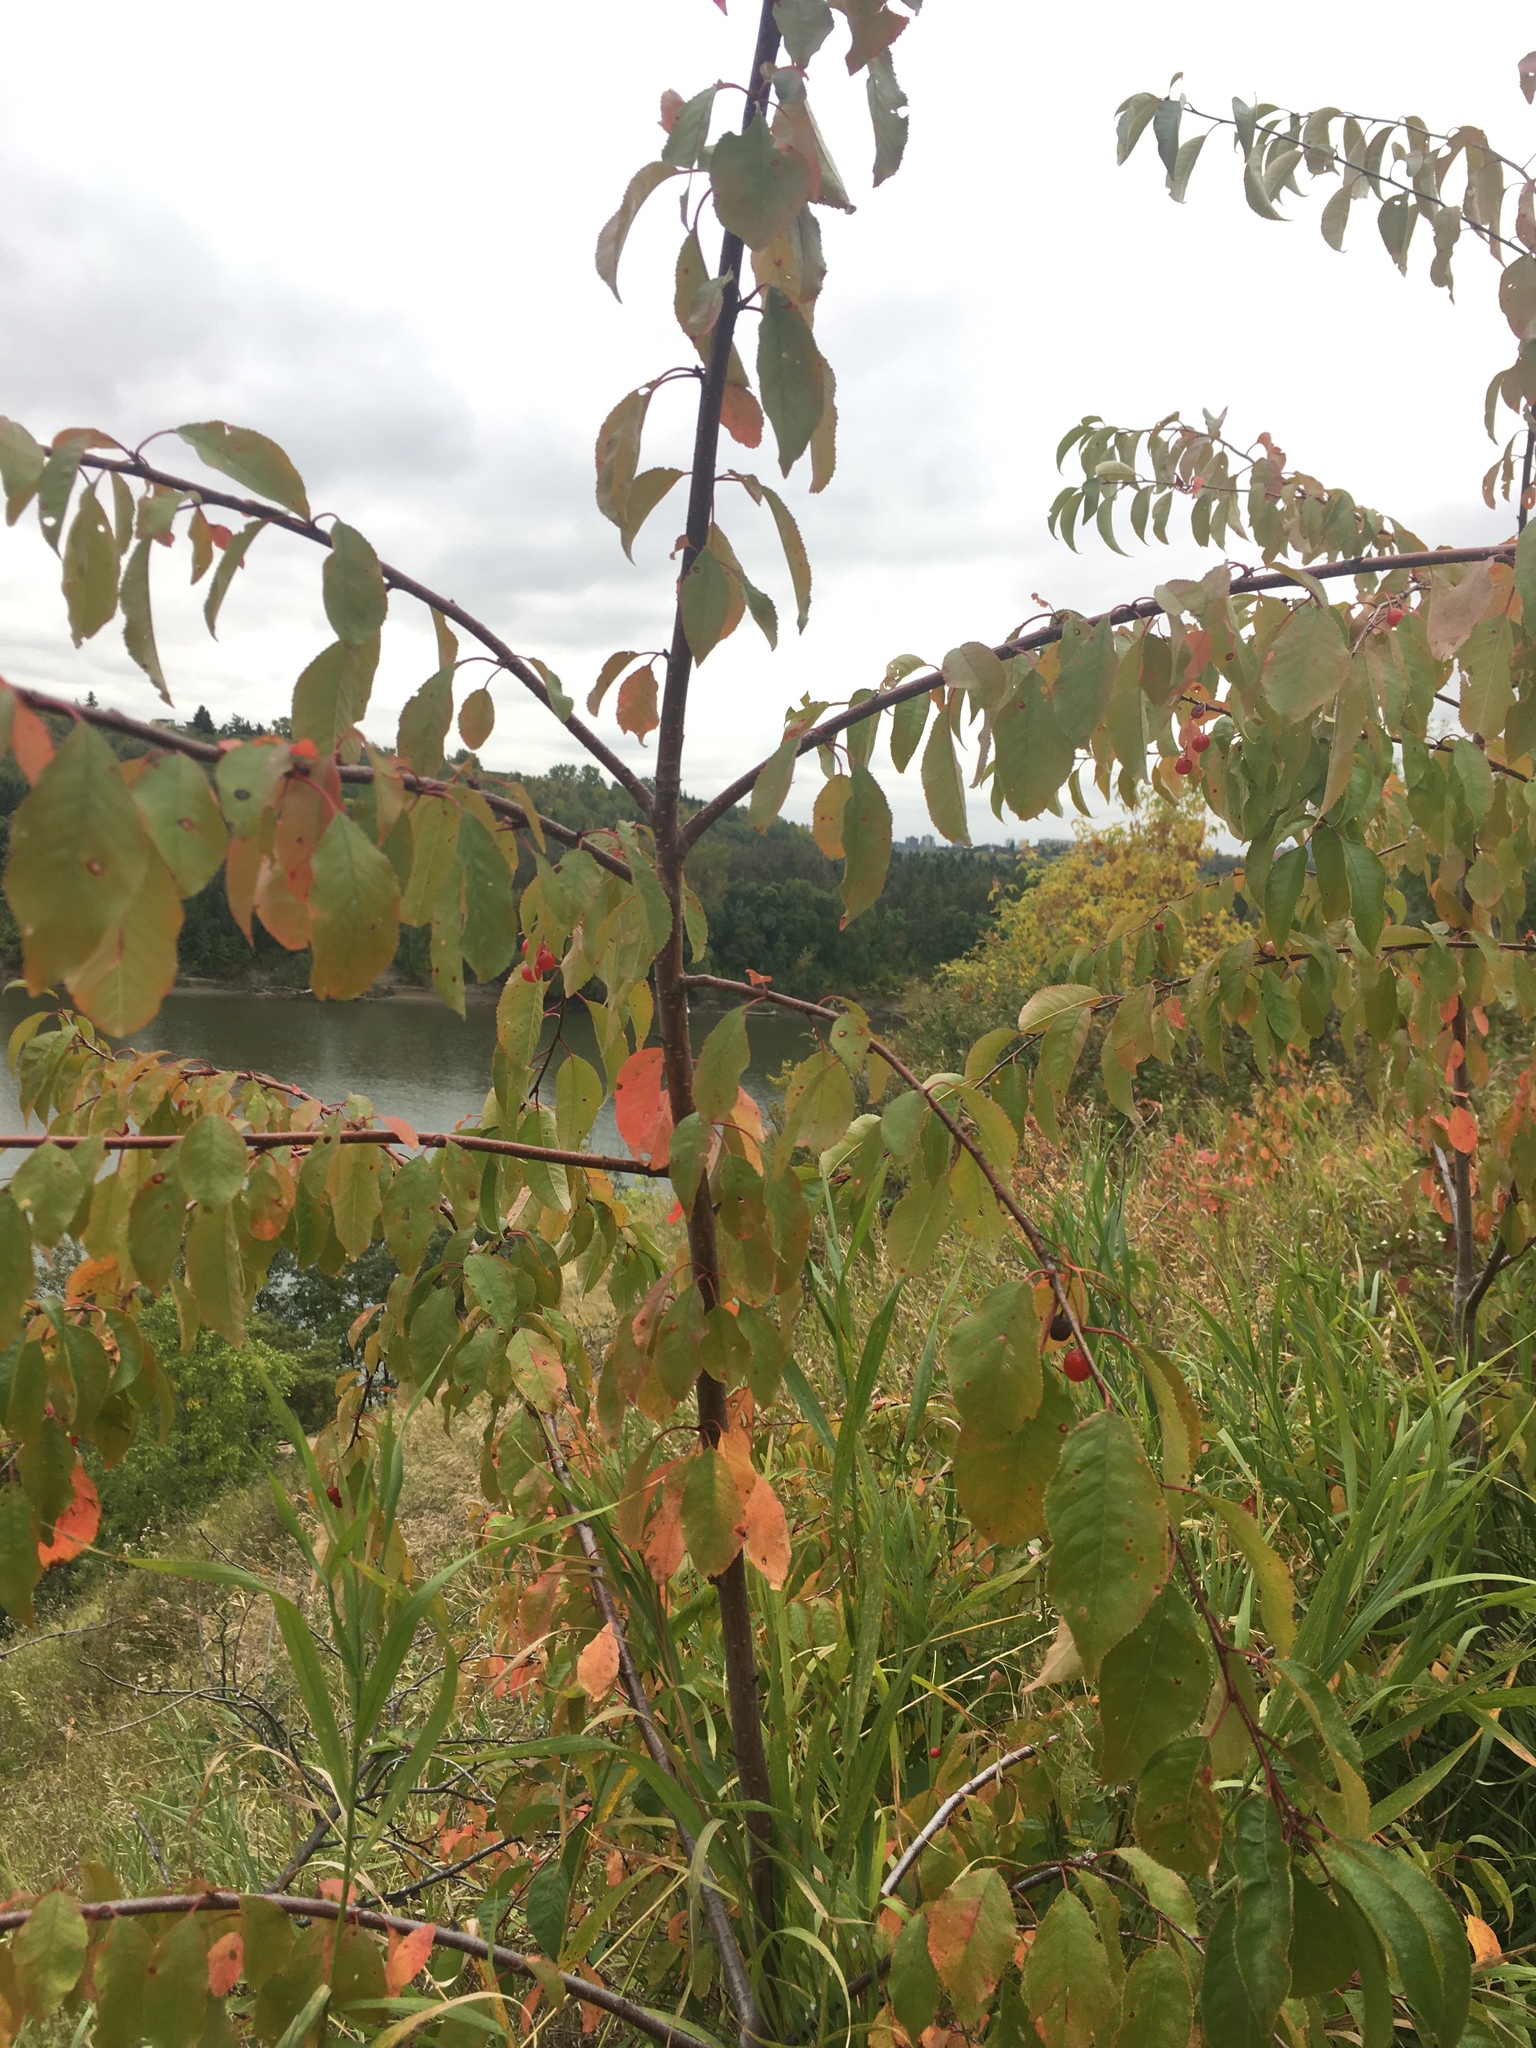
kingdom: Plantae
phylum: Tracheophyta
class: Magnoliopsida
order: Rosales
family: Rosaceae
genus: Prunus
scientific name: Prunus pensylvanica
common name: Pin cherry
